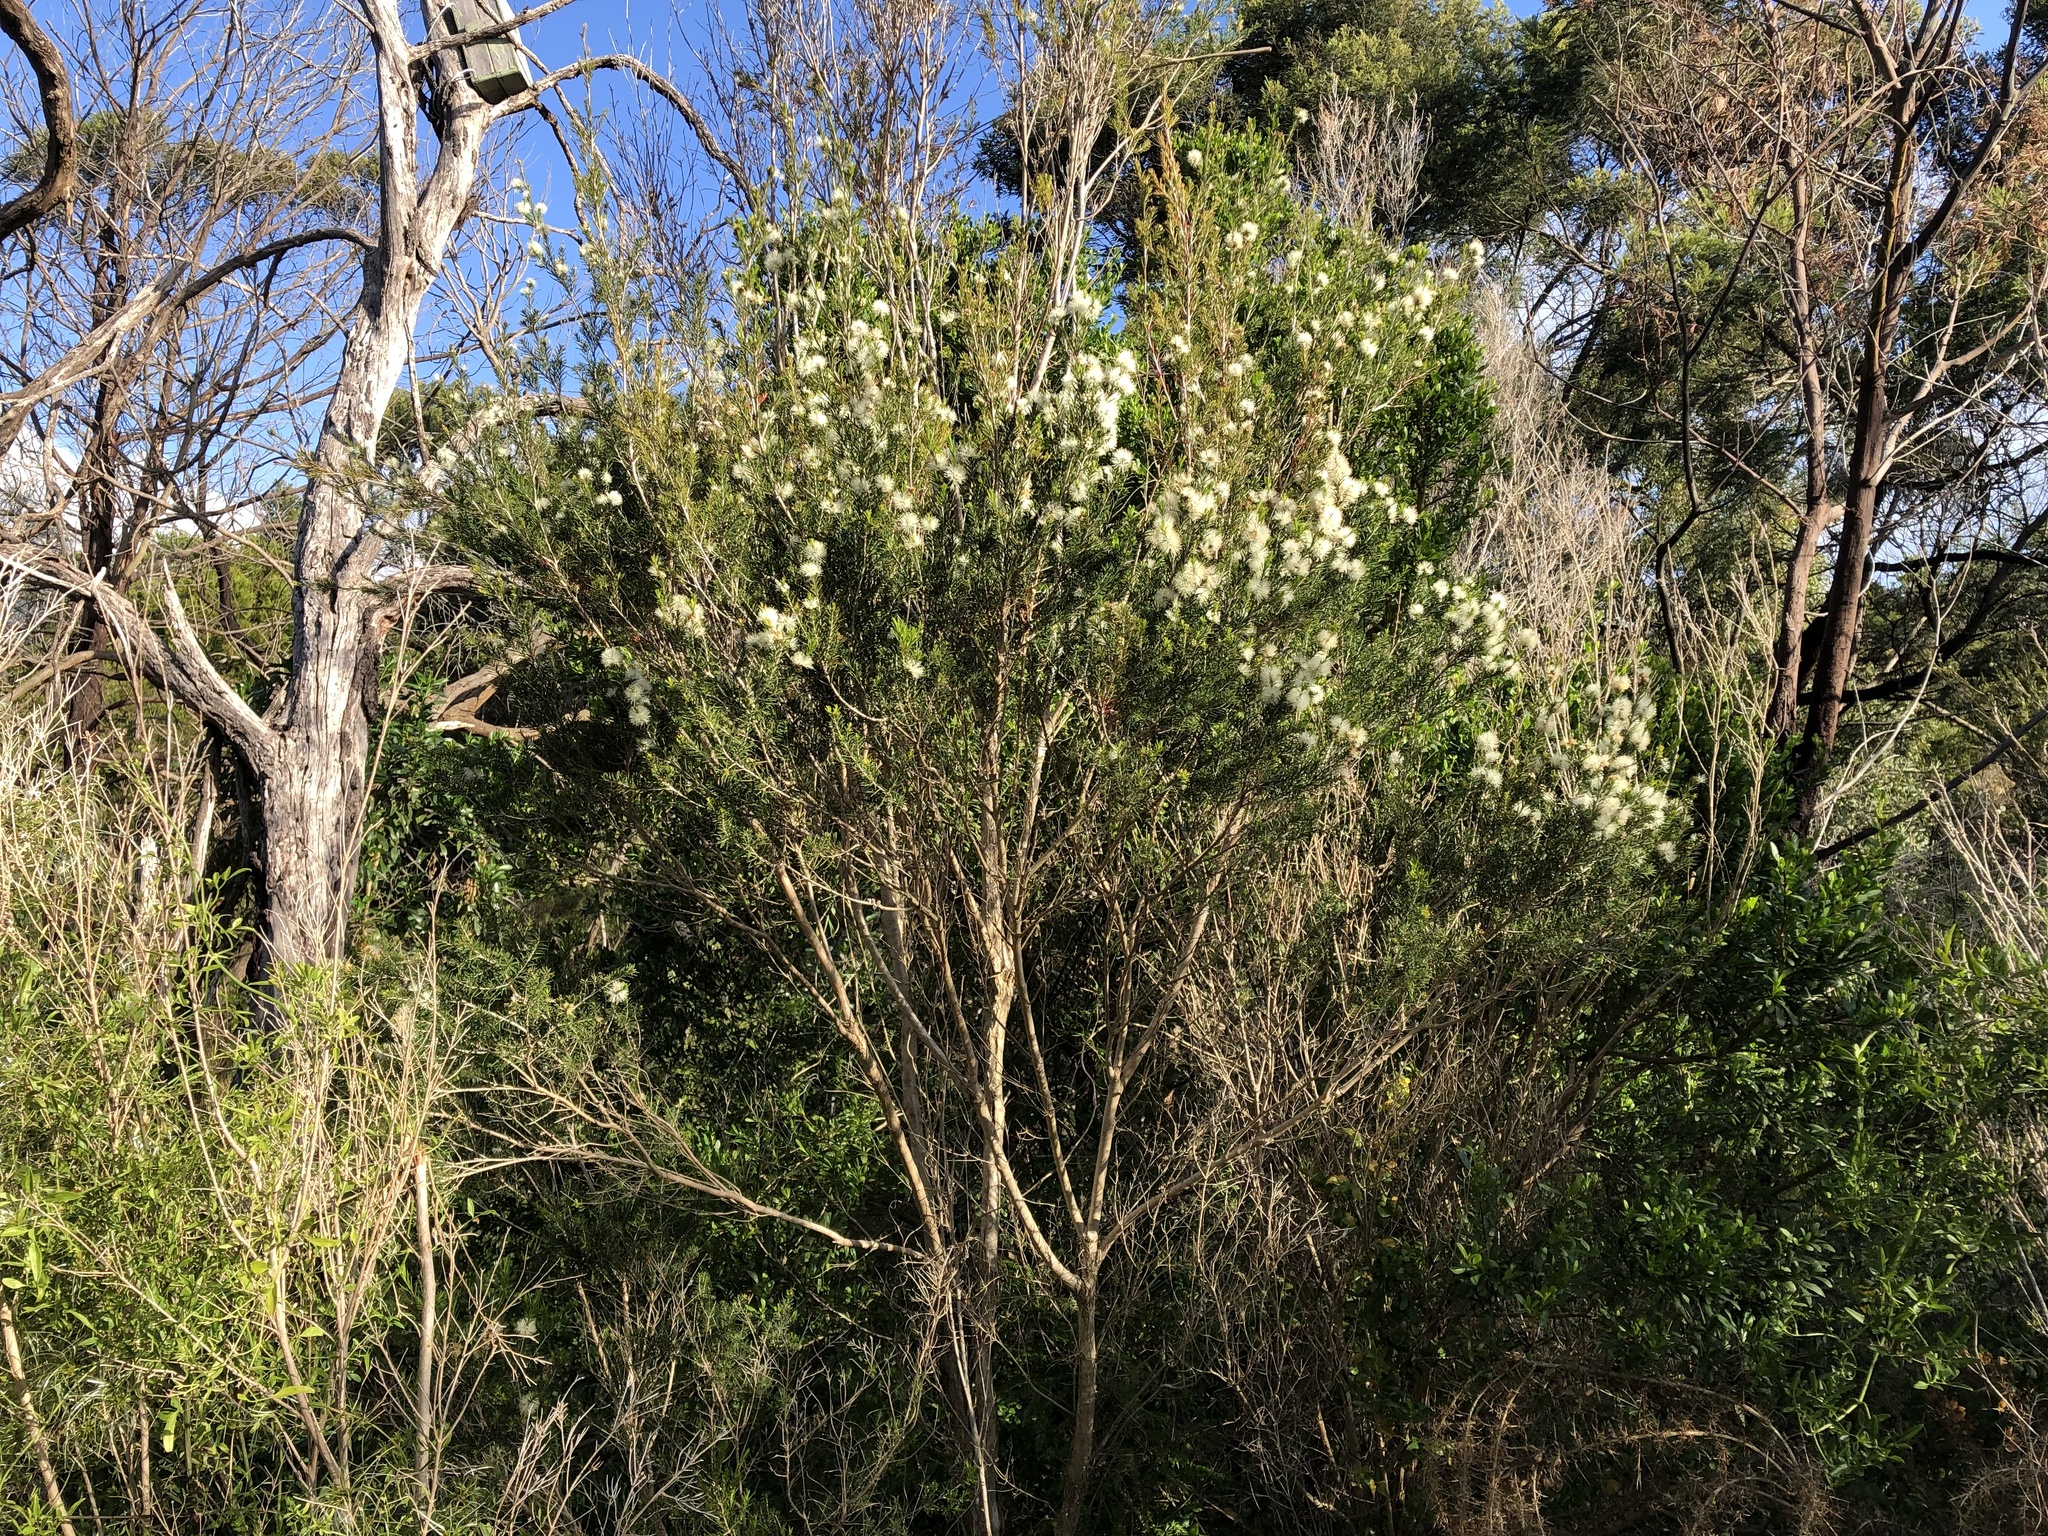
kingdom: Plantae
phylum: Tracheophyta
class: Magnoliopsida
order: Myrtales
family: Myrtaceae
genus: Melaleuca
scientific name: Melaleuca ericifolia
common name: Paperbark teatree
